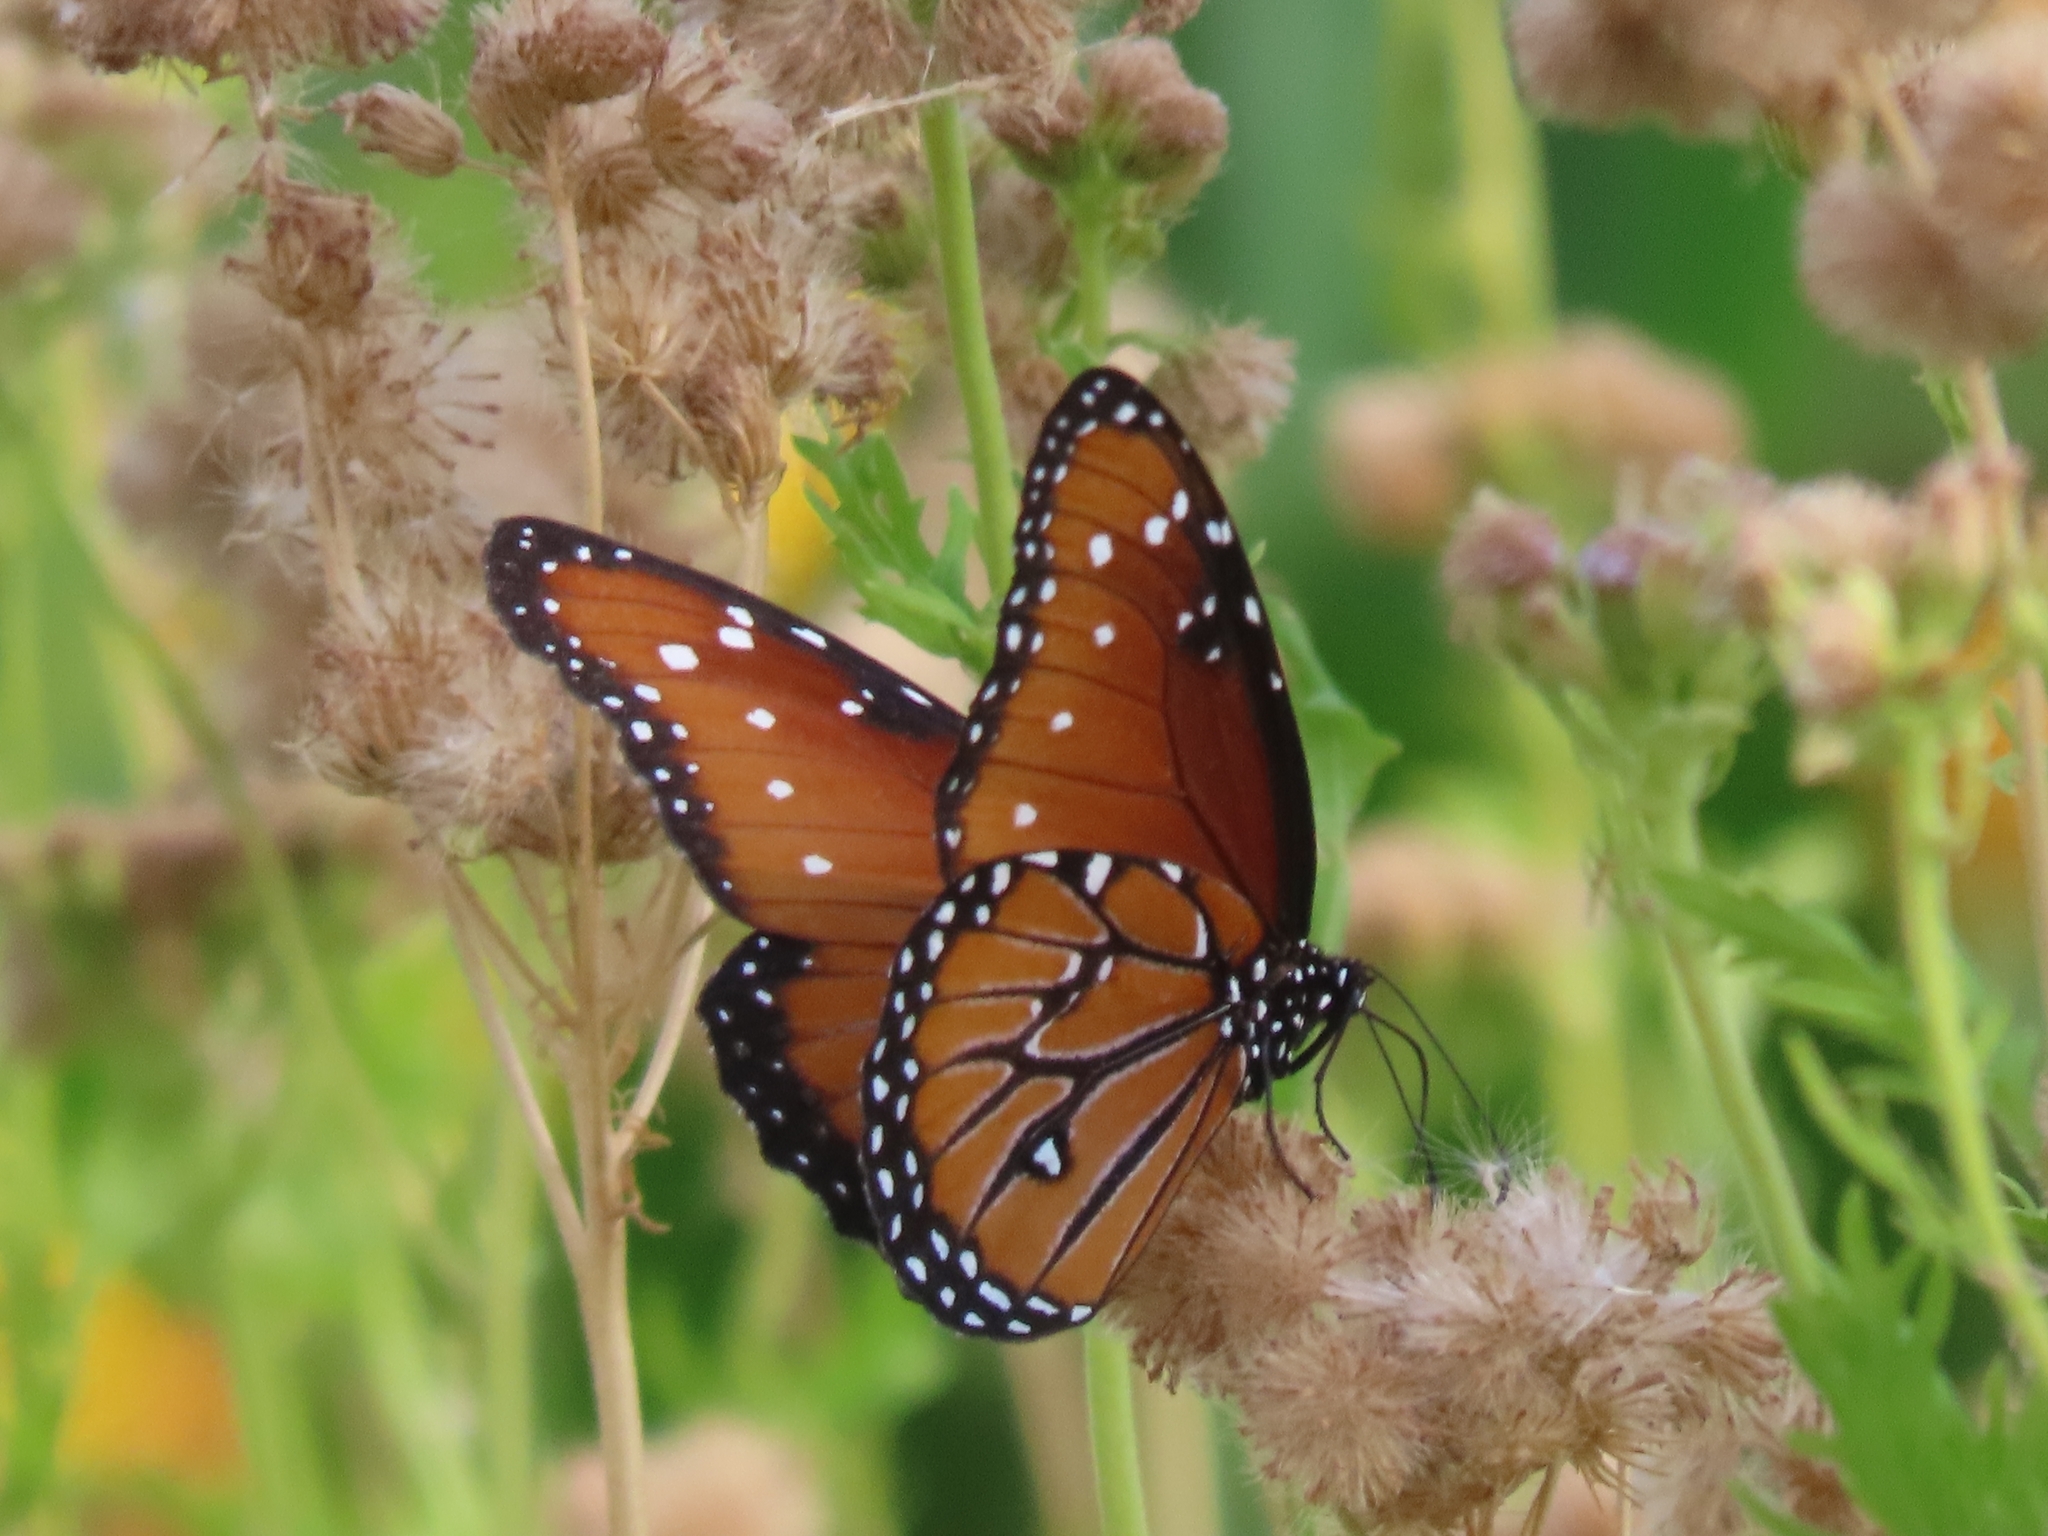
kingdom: Animalia
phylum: Arthropoda
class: Insecta
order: Lepidoptera
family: Nymphalidae
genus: Danaus
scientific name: Danaus gilippus
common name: Queen
